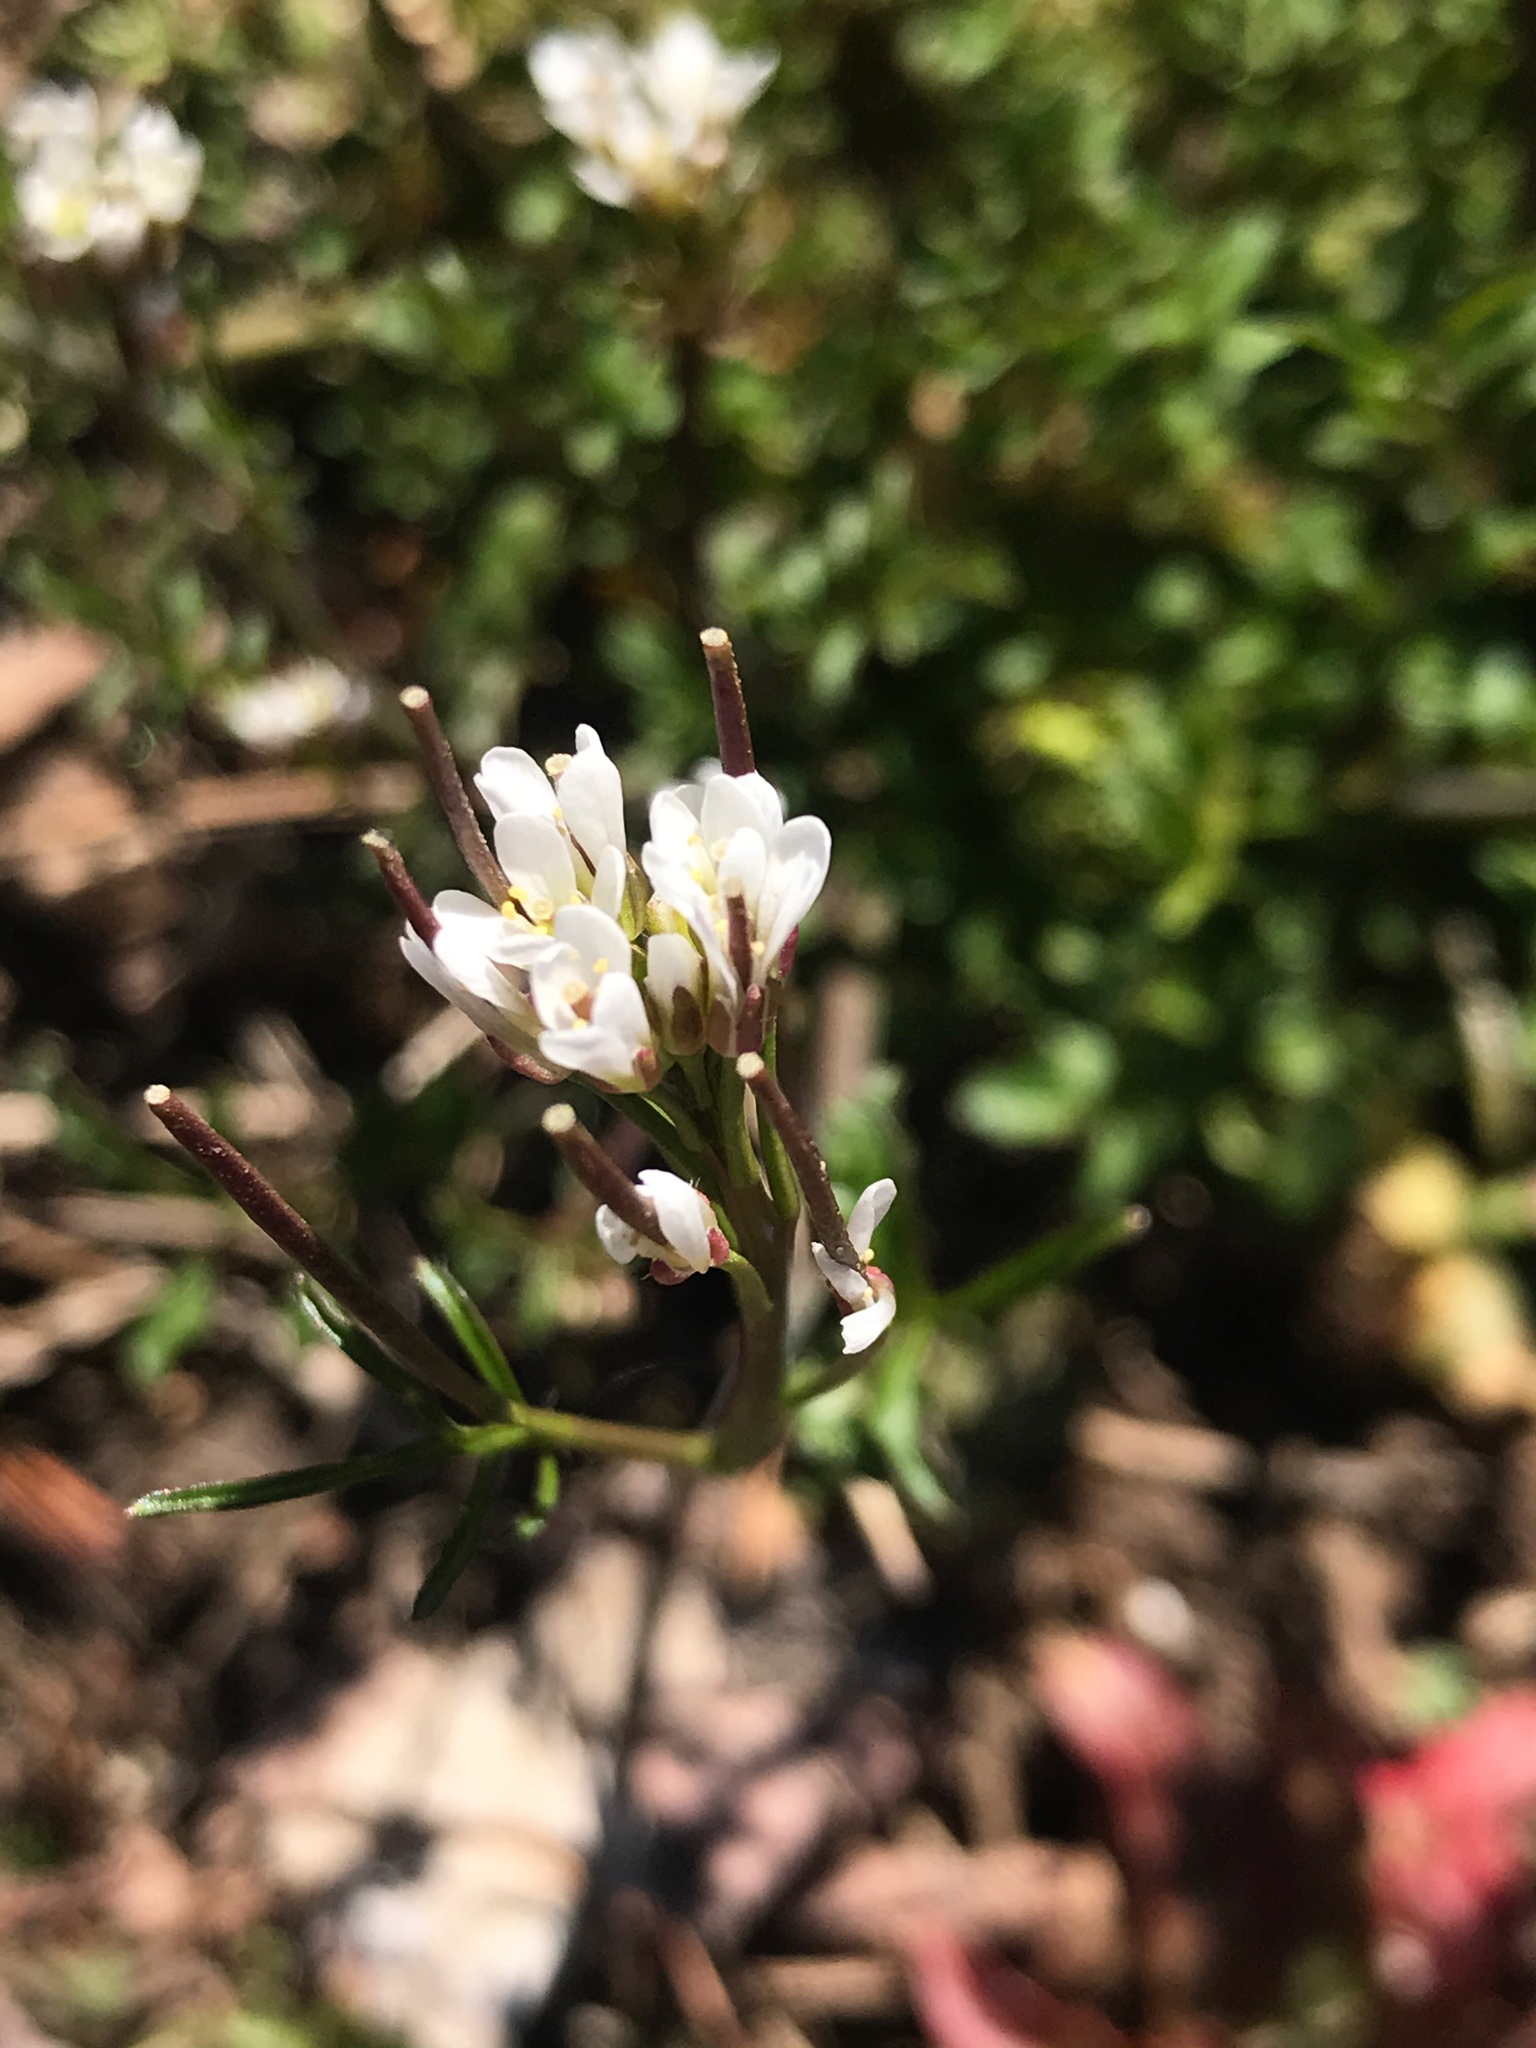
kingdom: Plantae
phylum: Tracheophyta
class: Magnoliopsida
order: Brassicales
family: Brassicaceae
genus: Cardamine
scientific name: Cardamine hirsuta
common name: Hairy bittercress
